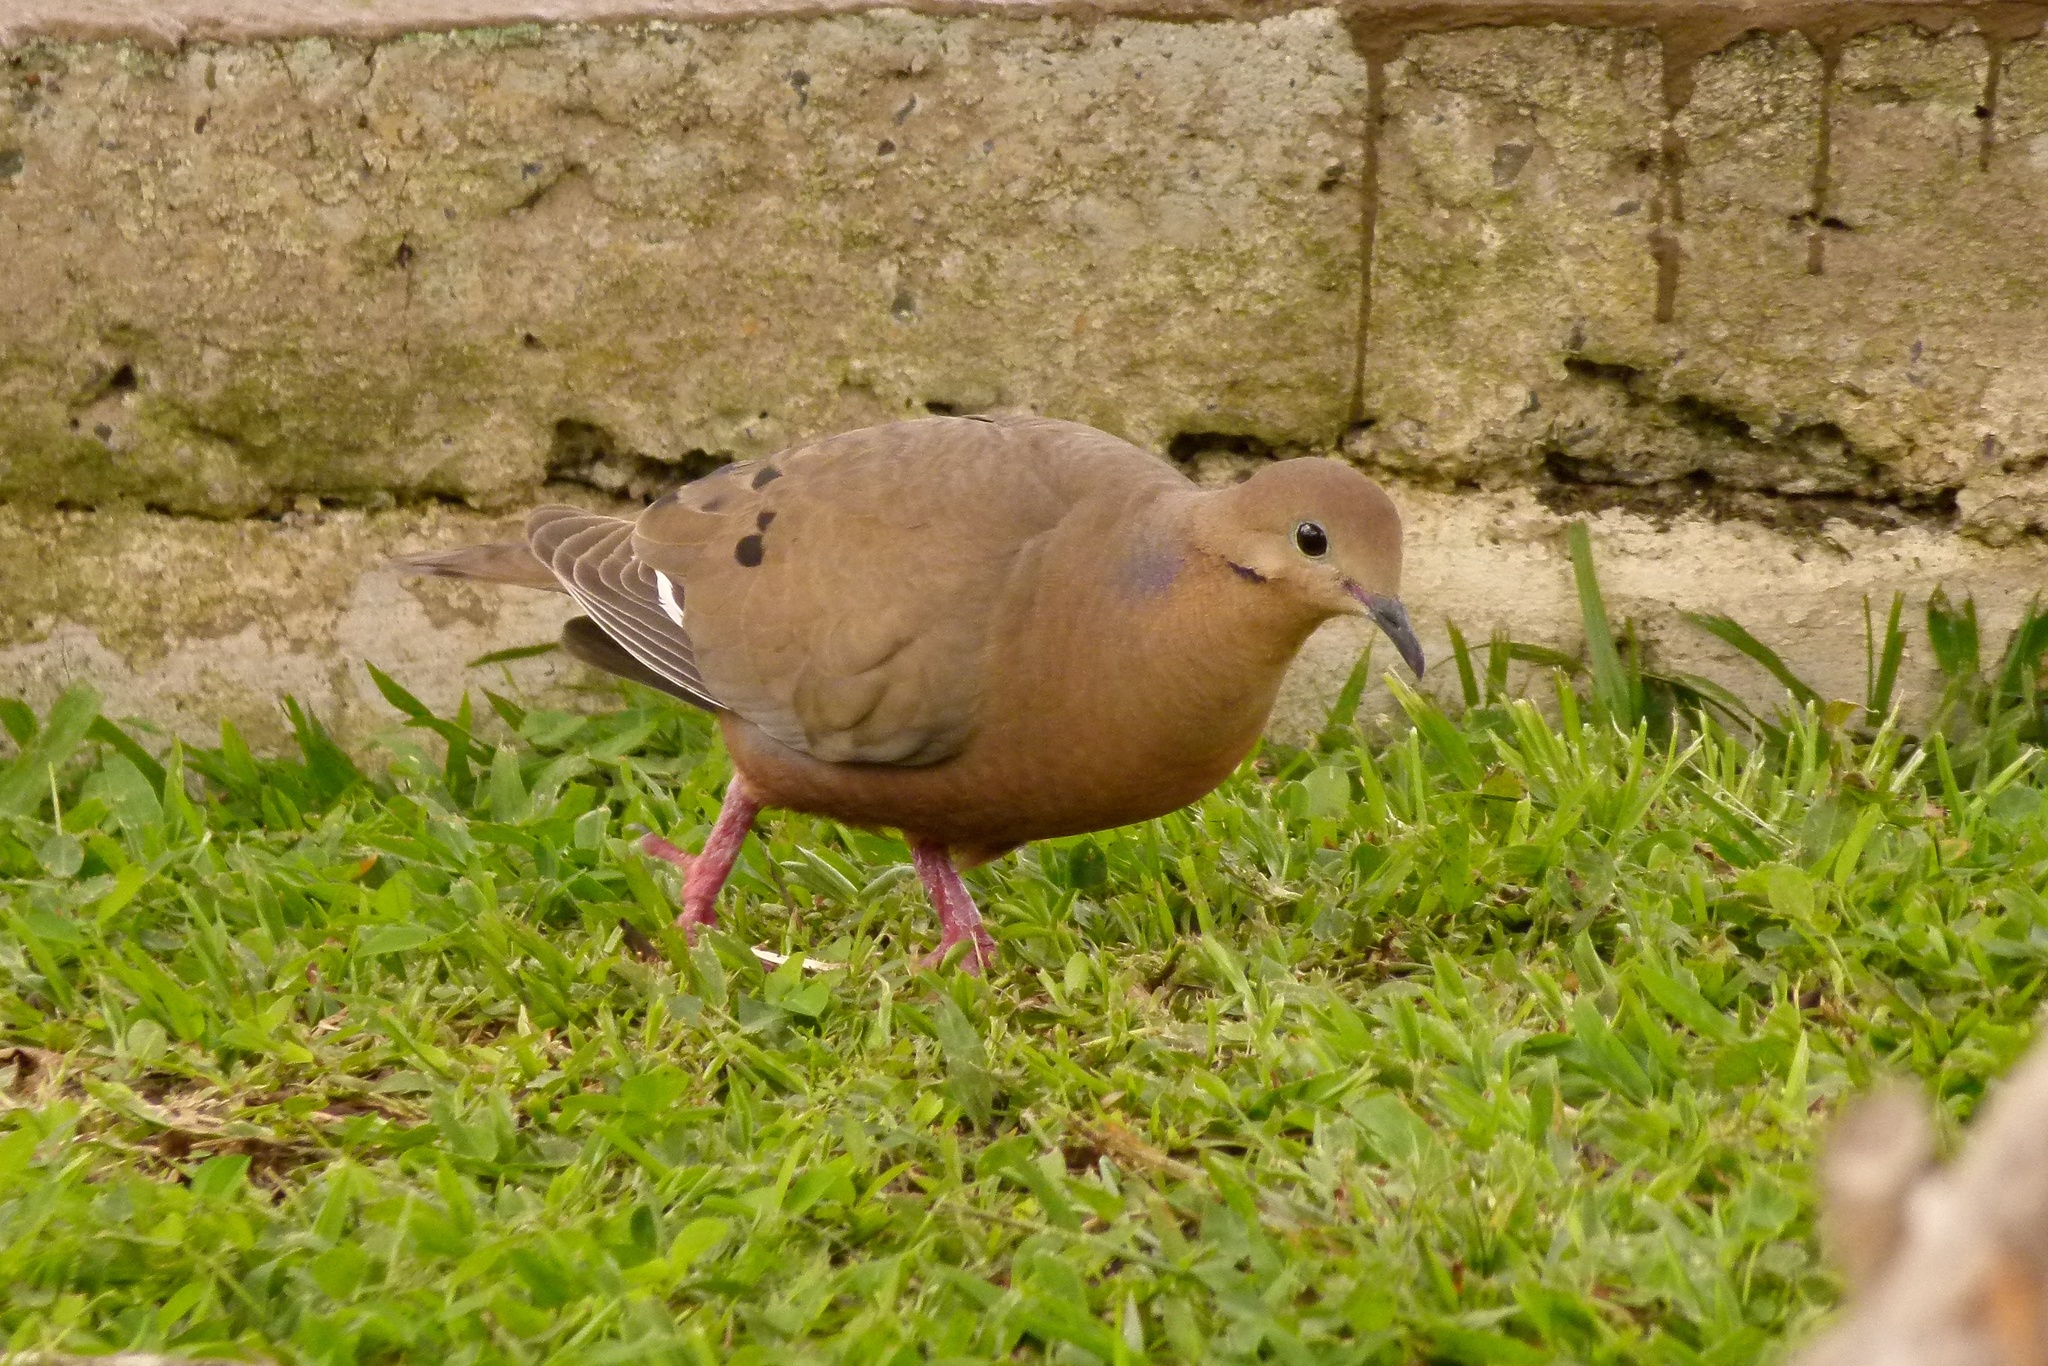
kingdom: Animalia
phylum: Chordata
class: Aves
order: Columbiformes
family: Columbidae
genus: Zenaida
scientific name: Zenaida aurita
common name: Zenaida dove
